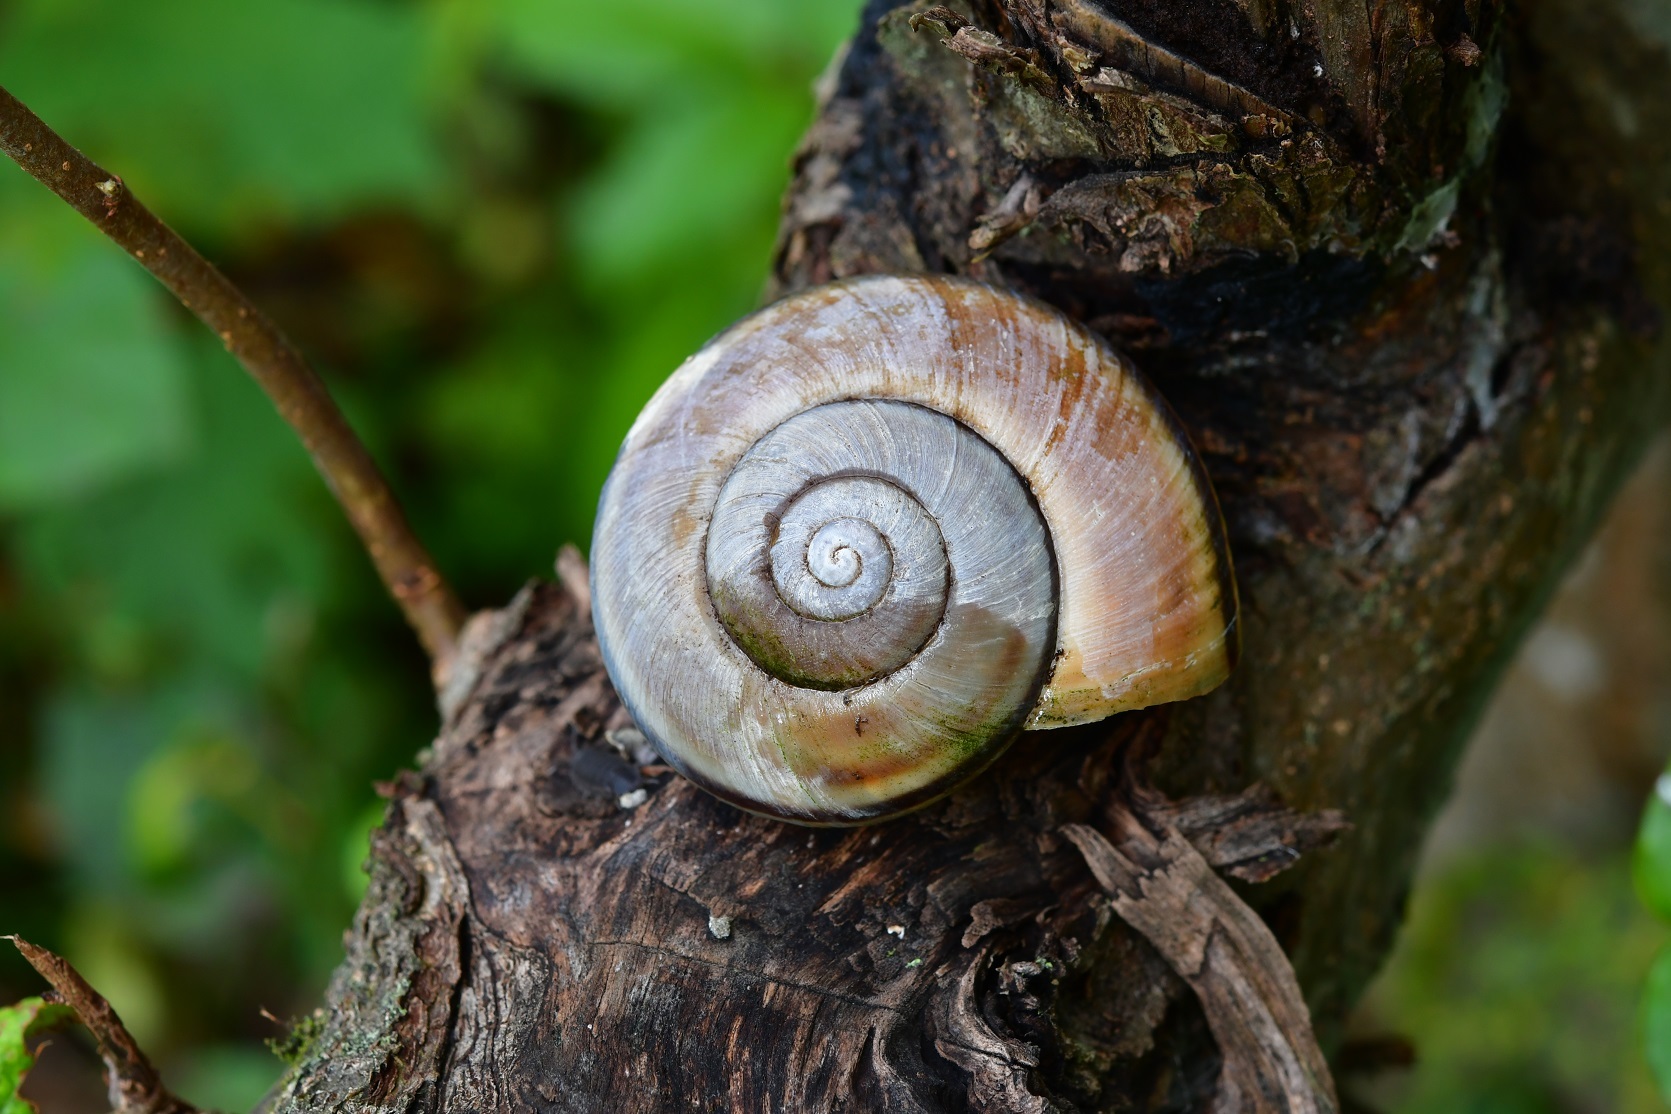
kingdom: Animalia
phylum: Mollusca
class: Gastropoda
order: Stylommatophora
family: Xanthonychidae
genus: Lysinoe
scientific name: Lysinoe ghiesbreghti
